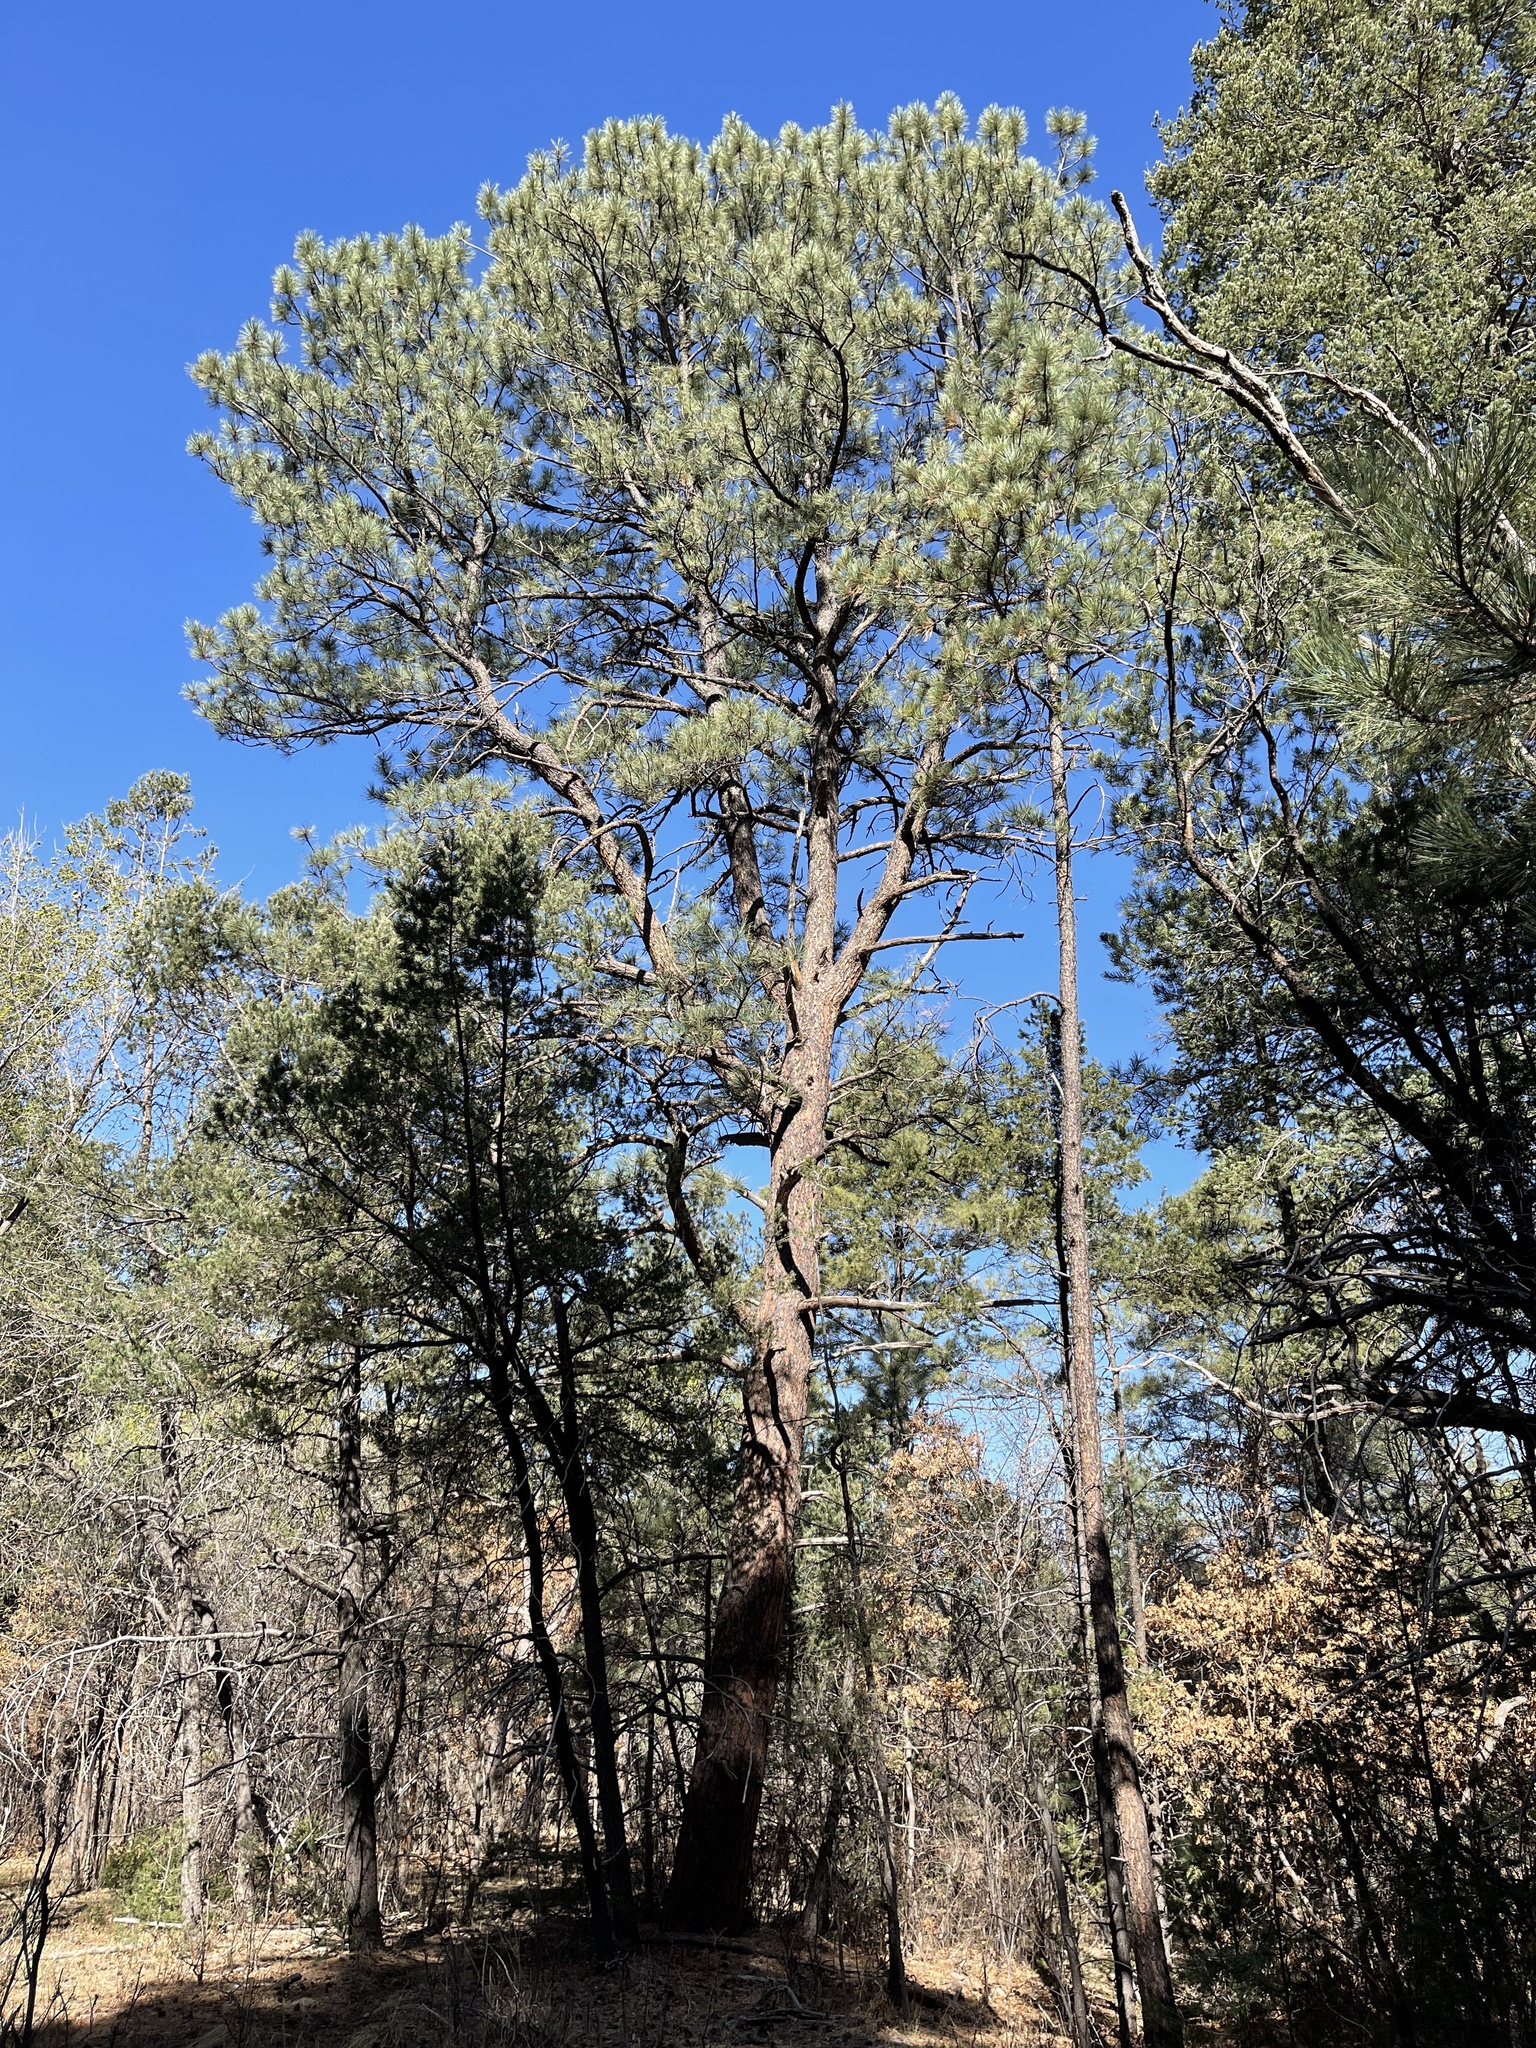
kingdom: Plantae
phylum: Tracheophyta
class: Pinopsida
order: Pinales
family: Pinaceae
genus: Pinus
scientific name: Pinus ponderosa
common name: Western yellow-pine
